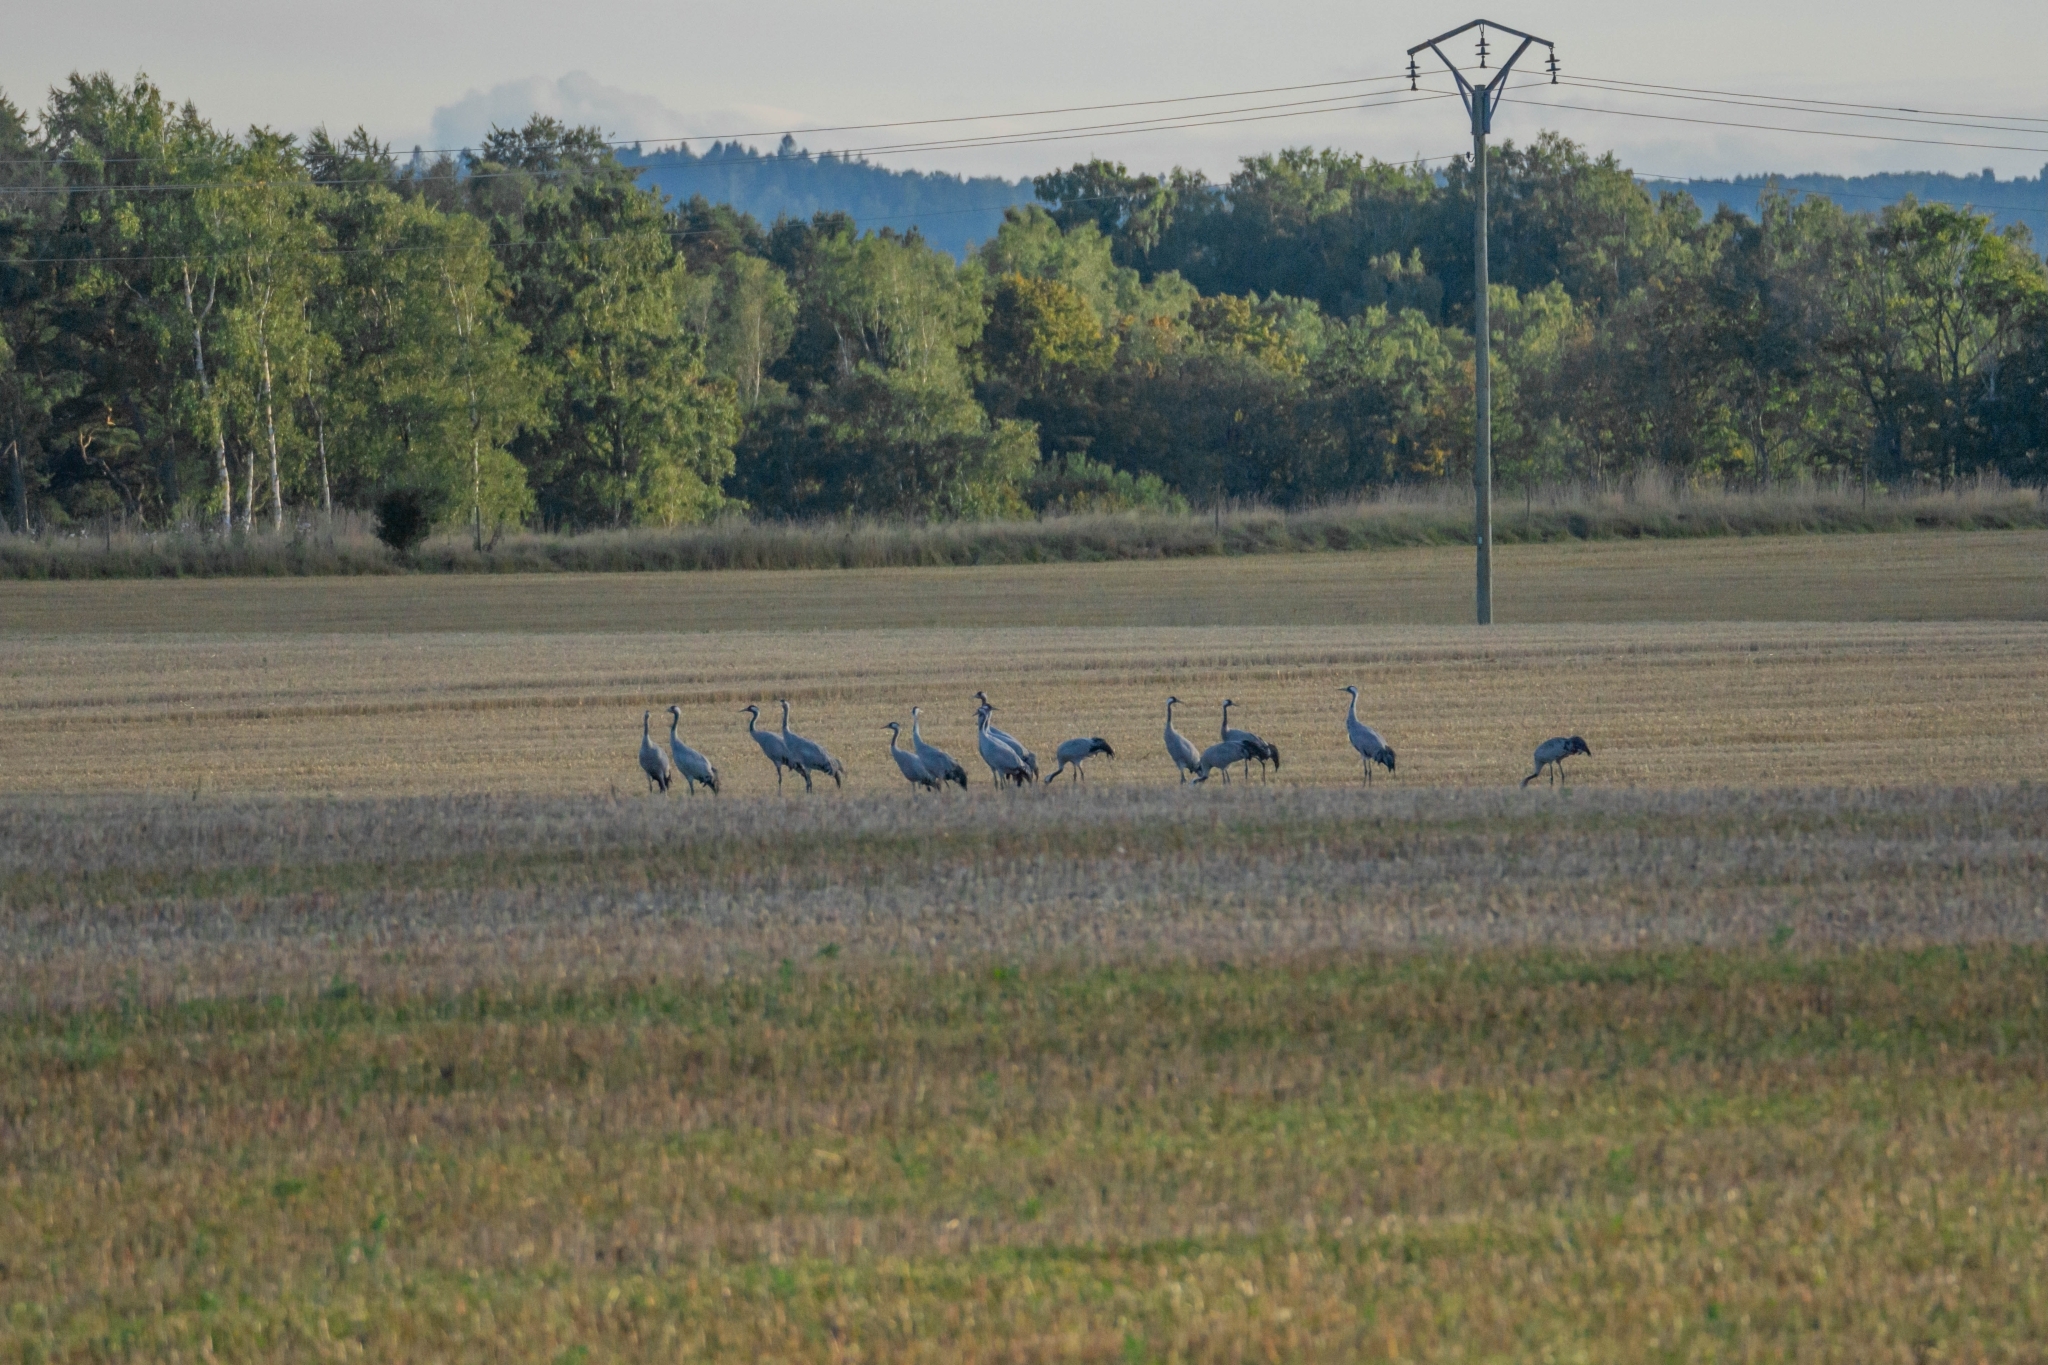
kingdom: Animalia
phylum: Chordata
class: Aves
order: Gruiformes
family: Gruidae
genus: Grus
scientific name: Grus grus
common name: Common crane
